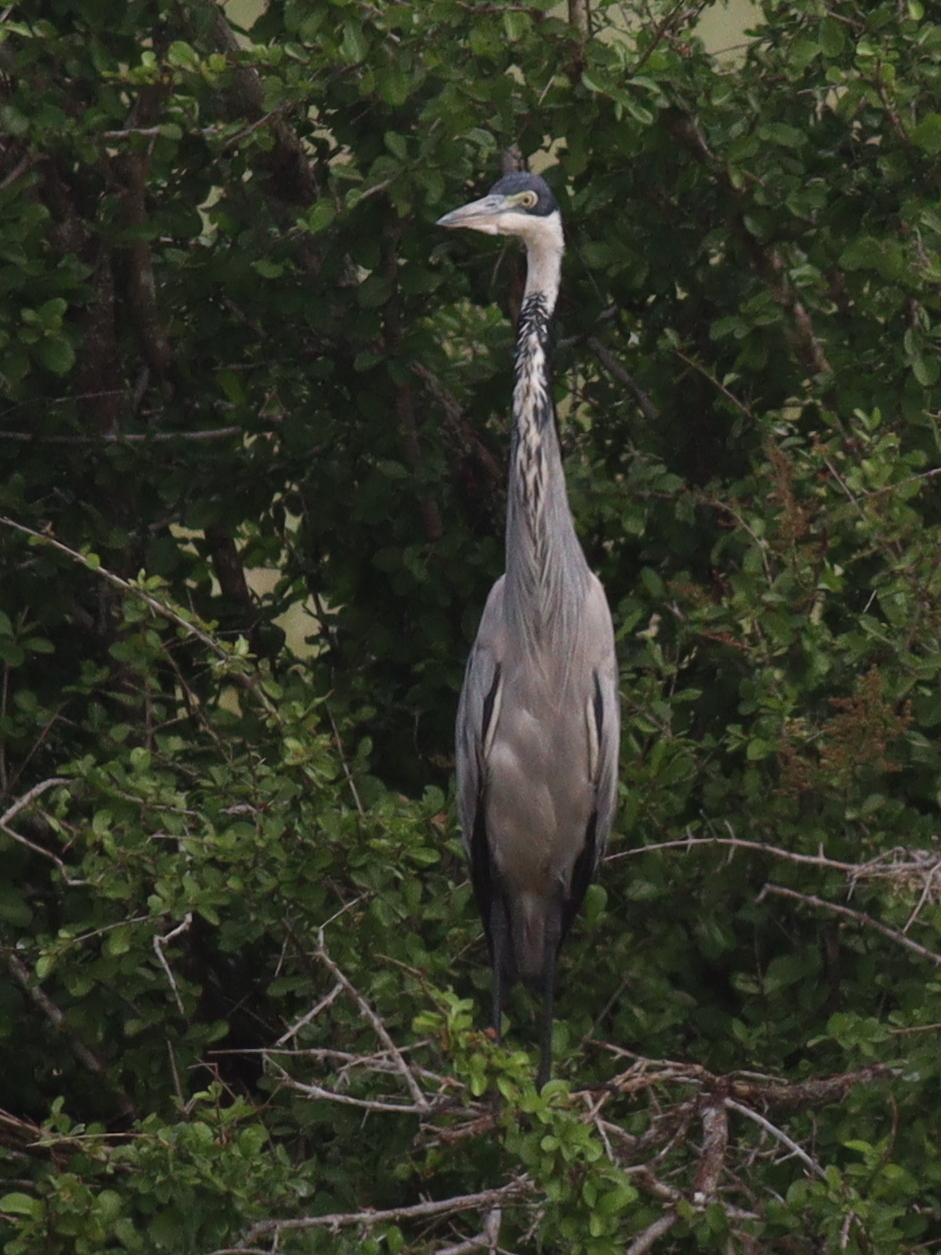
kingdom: Animalia
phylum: Chordata
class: Aves
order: Pelecaniformes
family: Ardeidae
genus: Ardea
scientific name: Ardea melanocephala
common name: Black-headed heron
